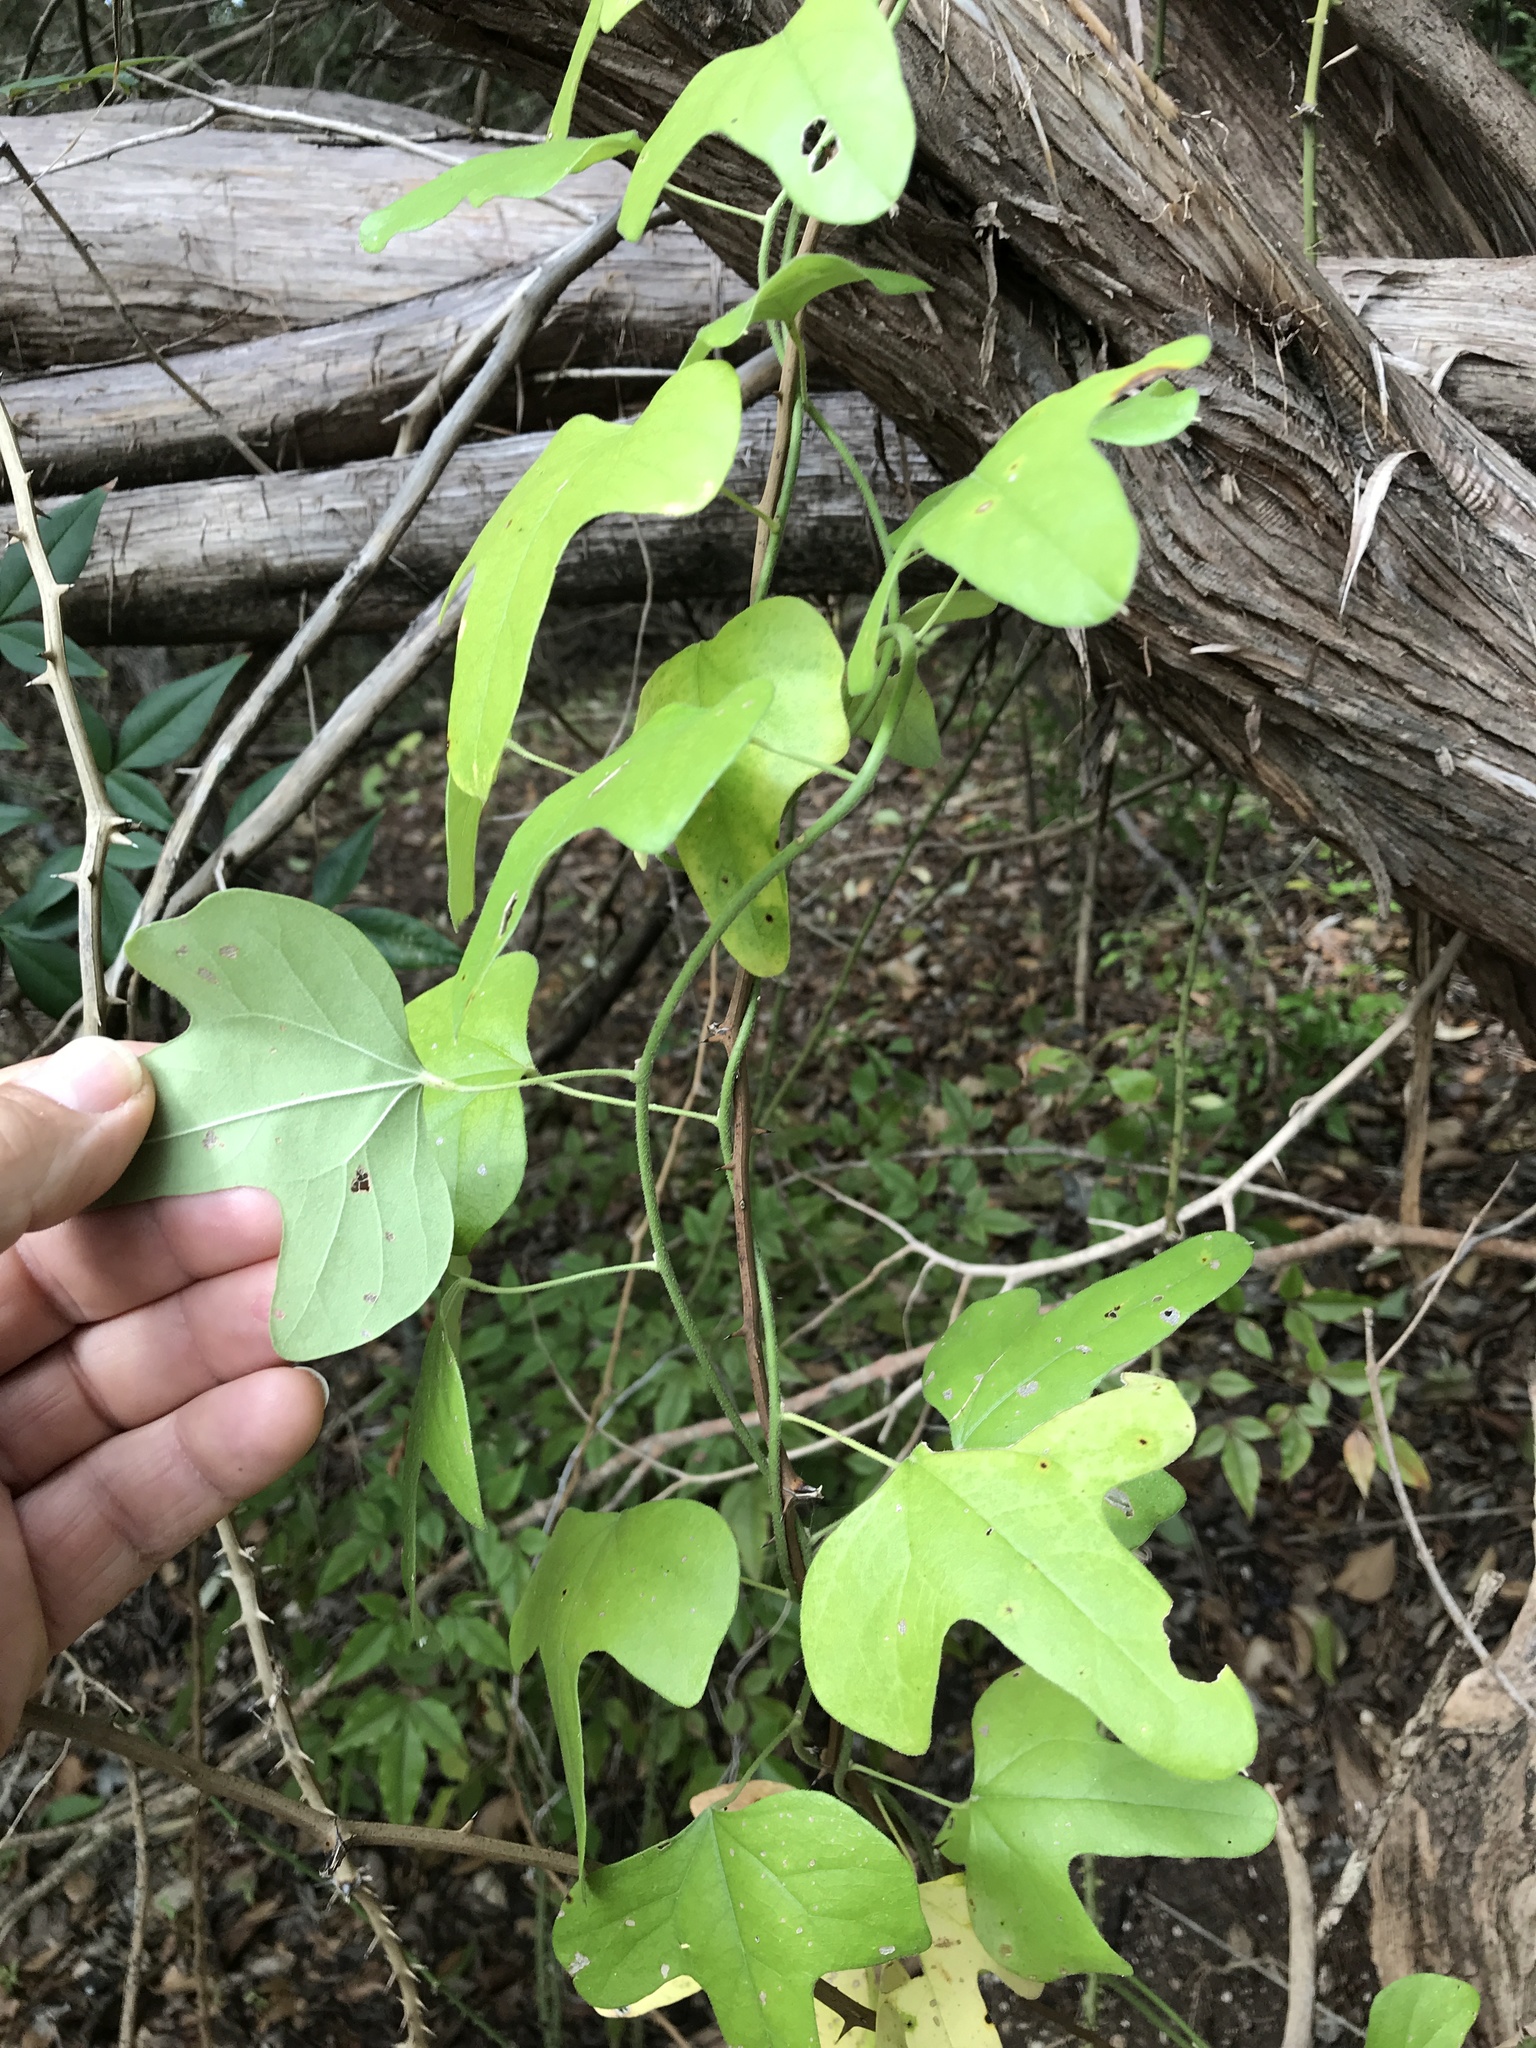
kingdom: Plantae
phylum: Tracheophyta
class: Magnoliopsida
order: Ranunculales
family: Menispermaceae
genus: Cocculus
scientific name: Cocculus carolinus
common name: Carolina moonseed
